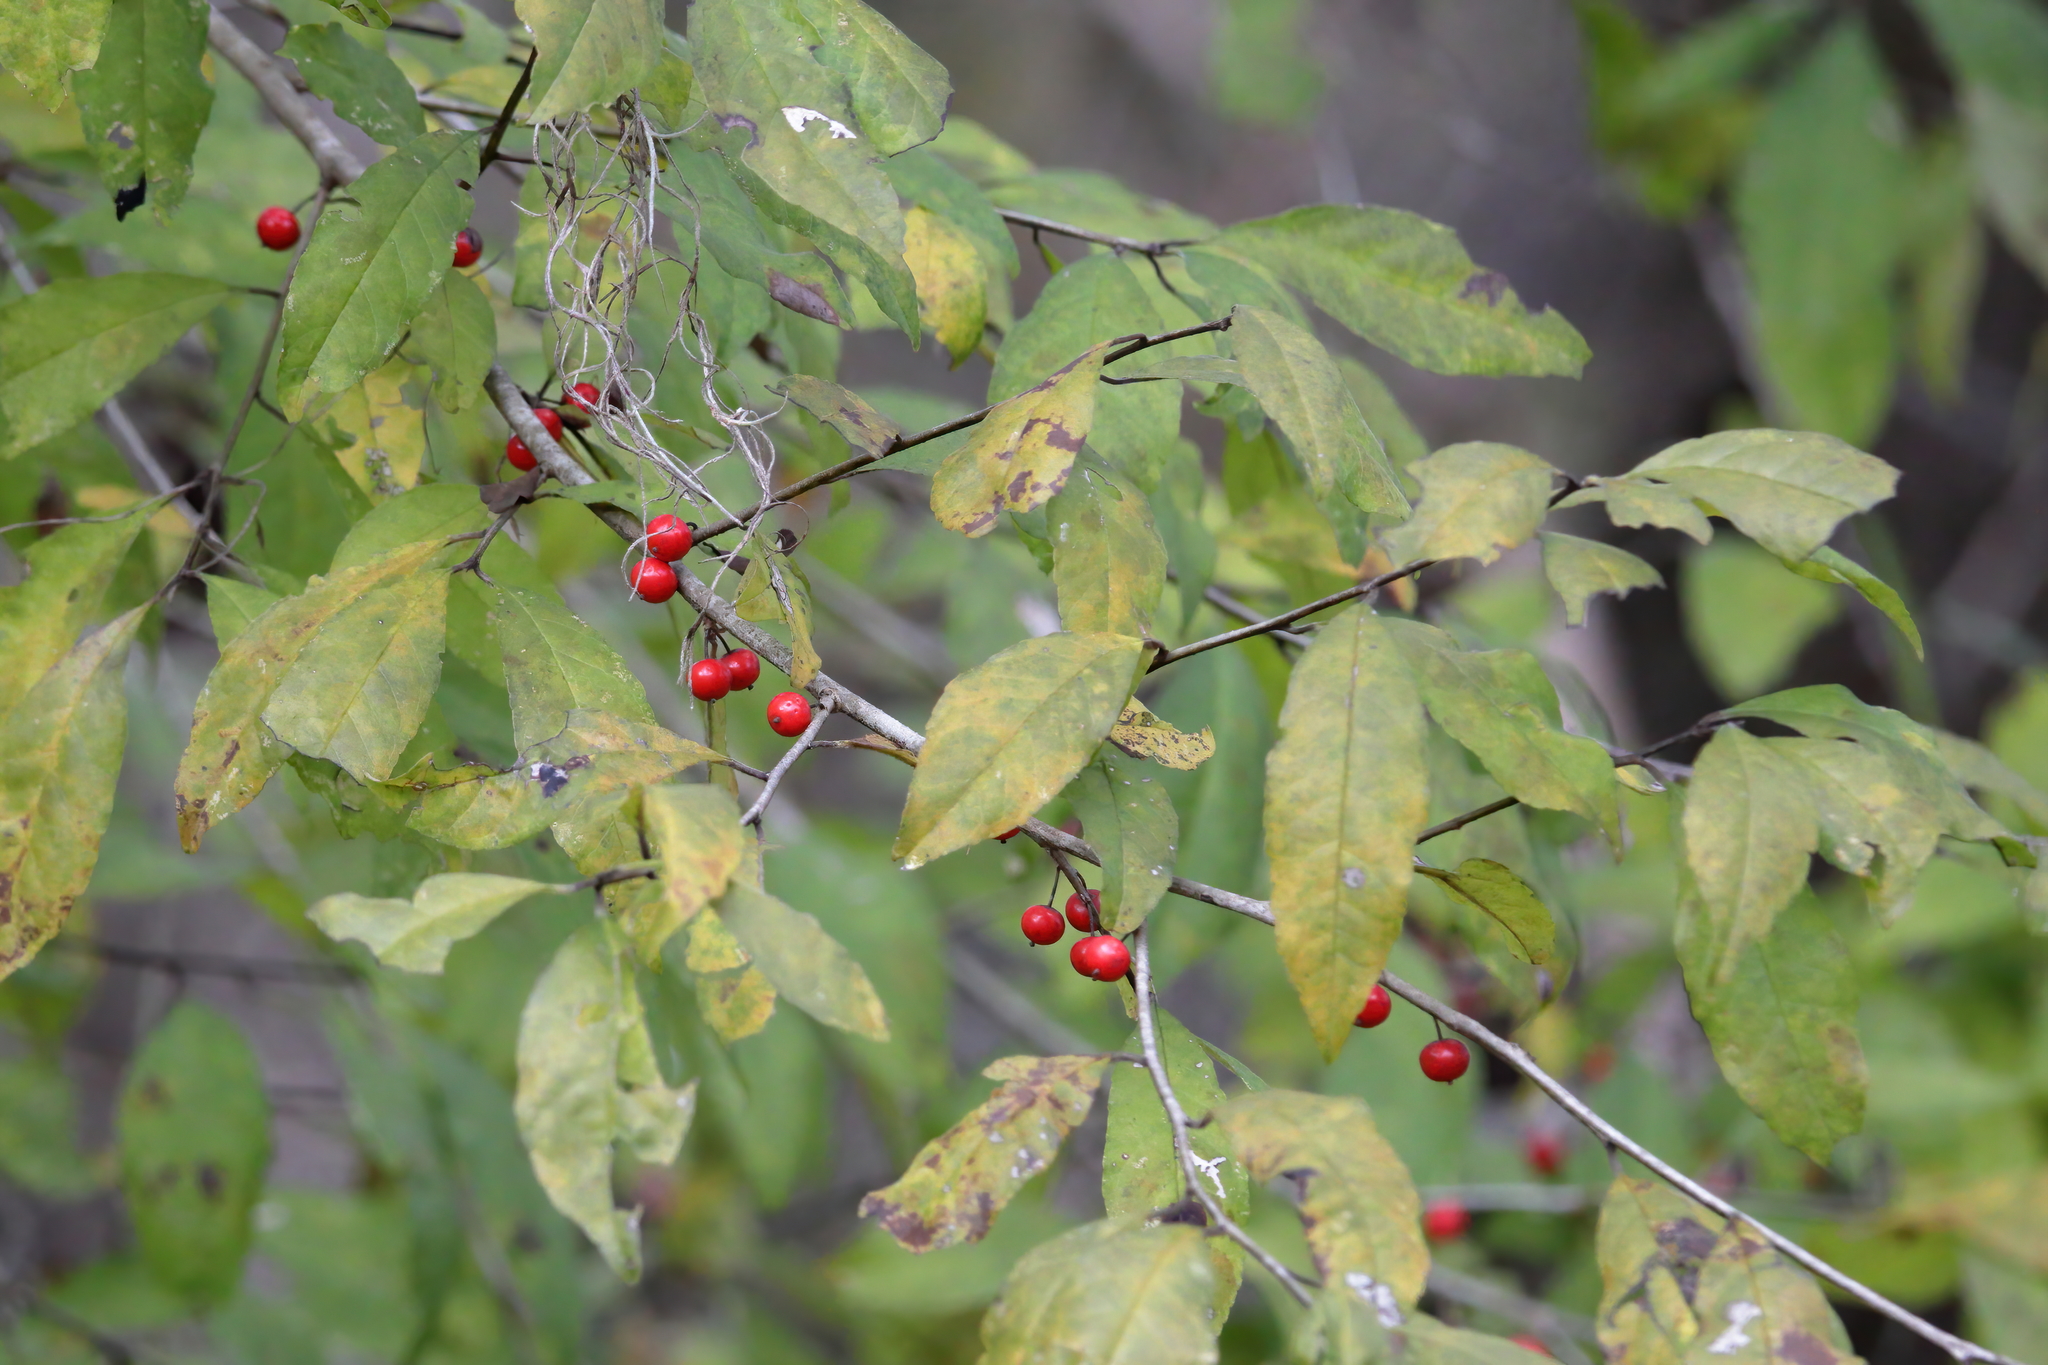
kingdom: Plantae
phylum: Tracheophyta
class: Magnoliopsida
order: Aquifoliales
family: Aquifoliaceae
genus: Ilex
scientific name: Ilex decidua
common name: Possum-haw
